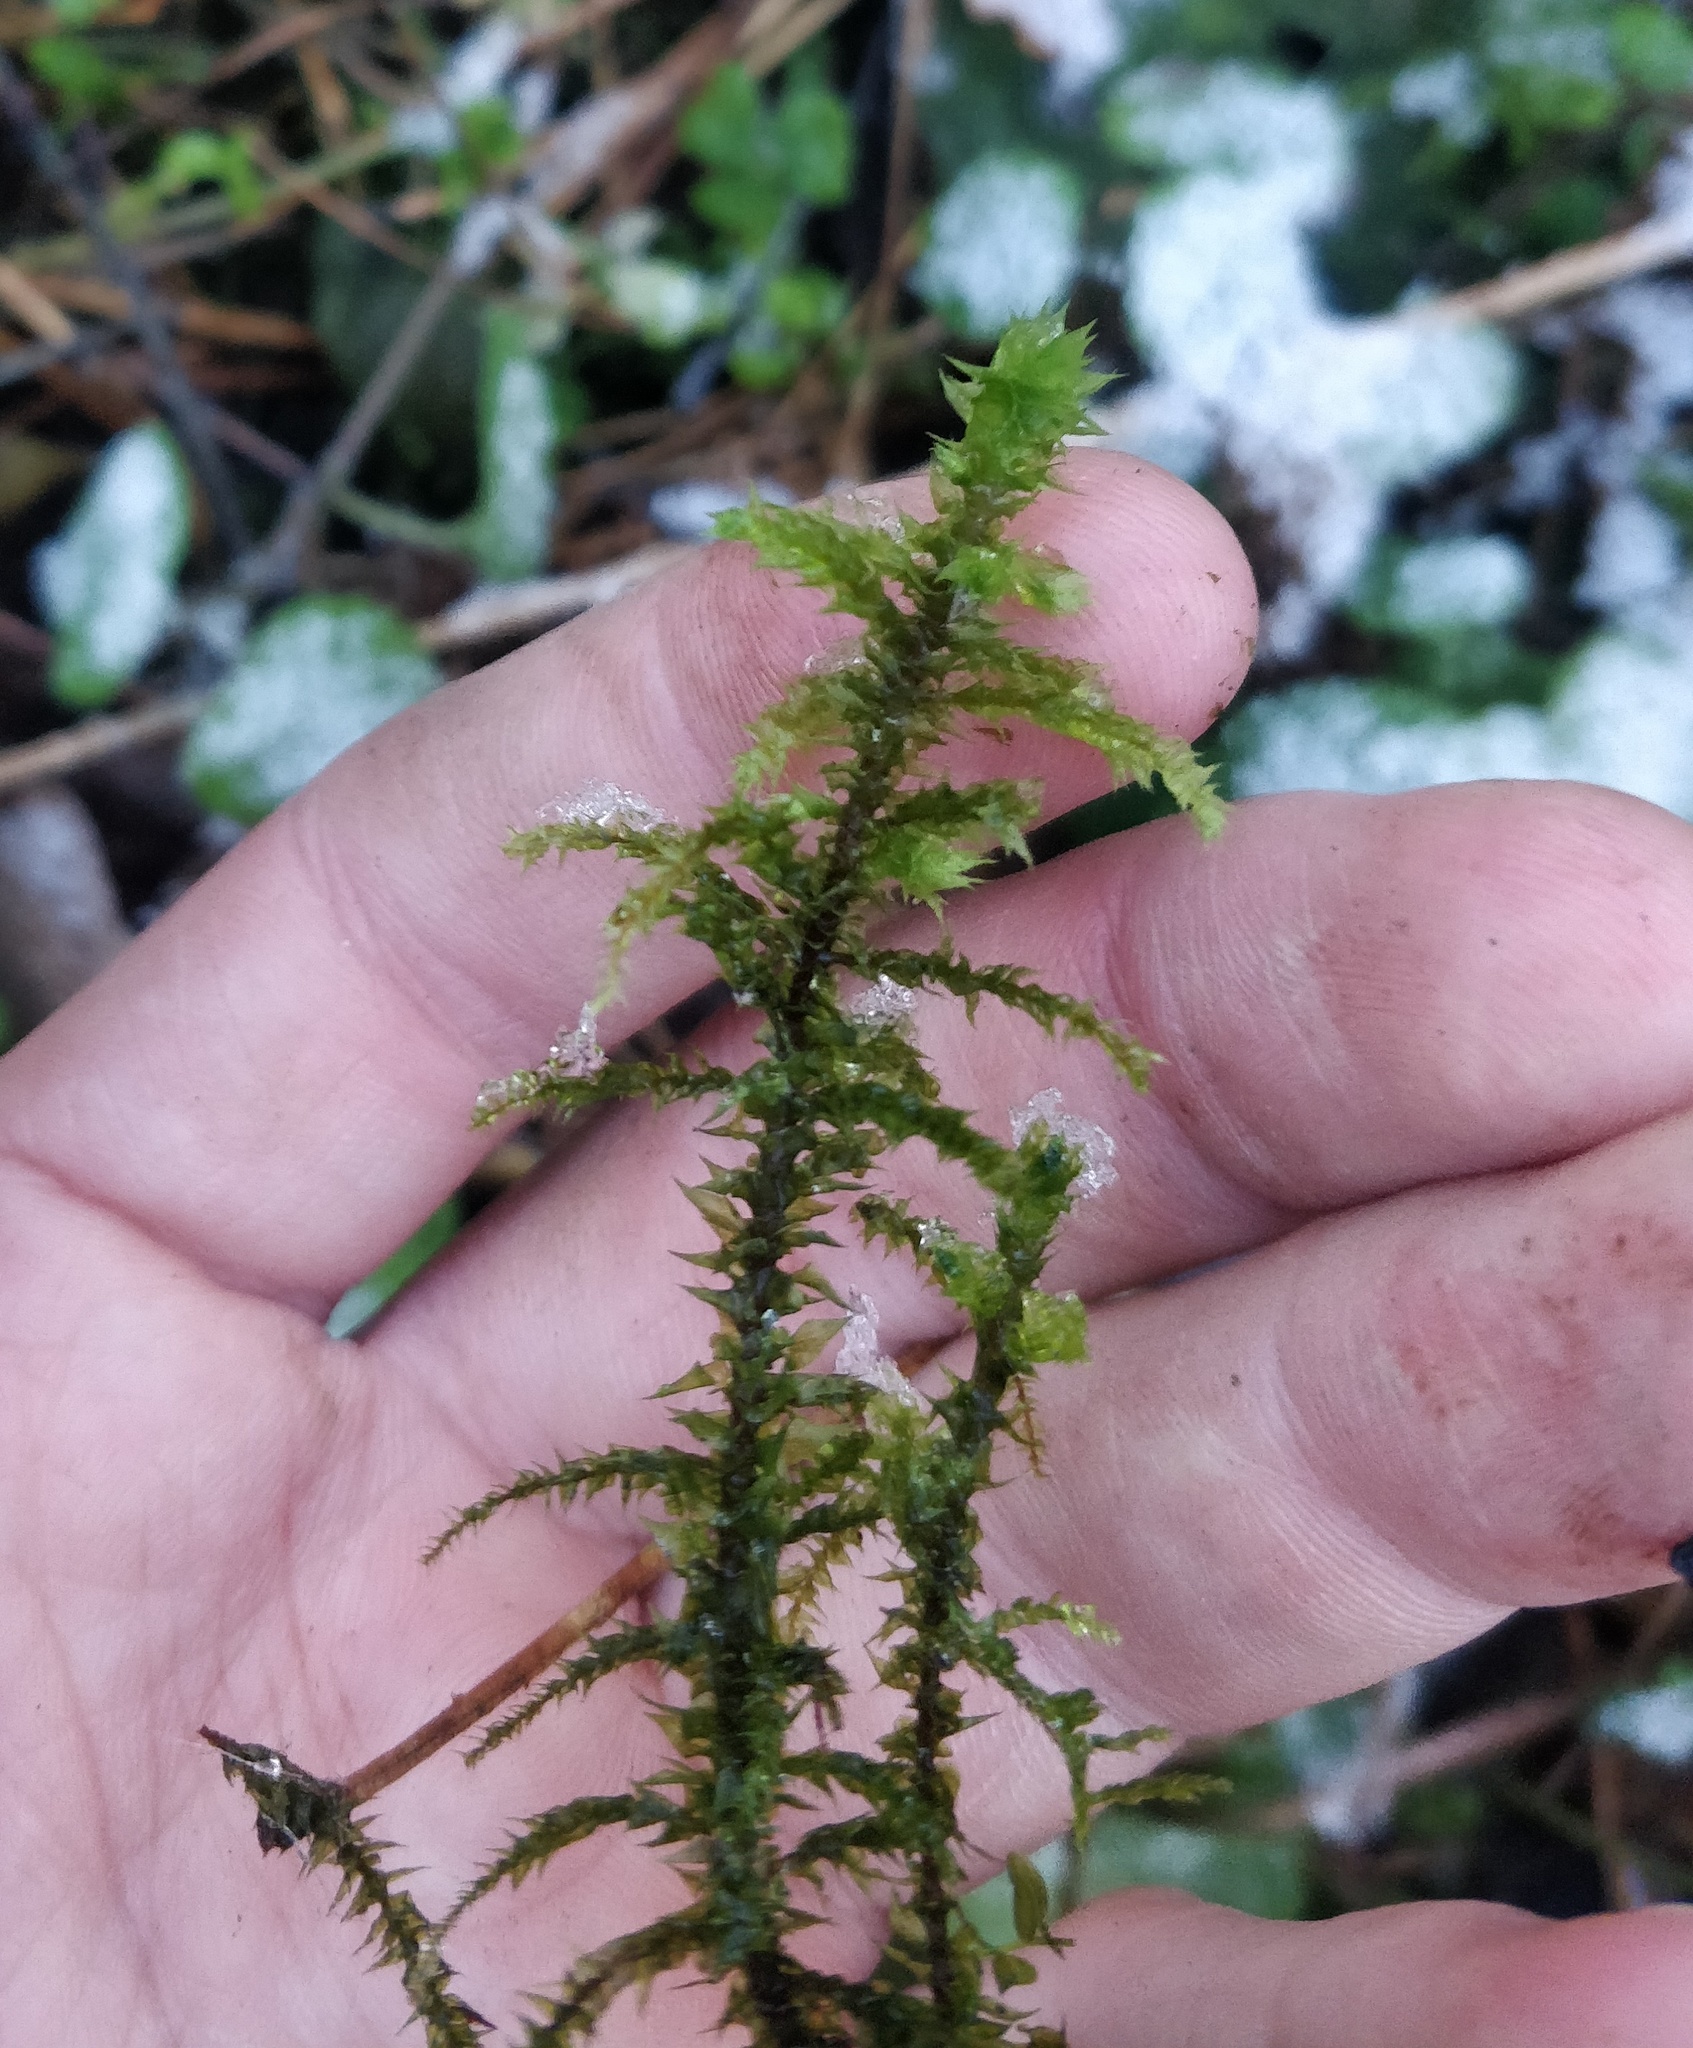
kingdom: Plantae
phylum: Bryophyta
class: Bryopsida
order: Hypnales
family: Hylocomiaceae
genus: Hylocomiadelphus
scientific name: Hylocomiadelphus triquetrus
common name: Rough goose neck moss
